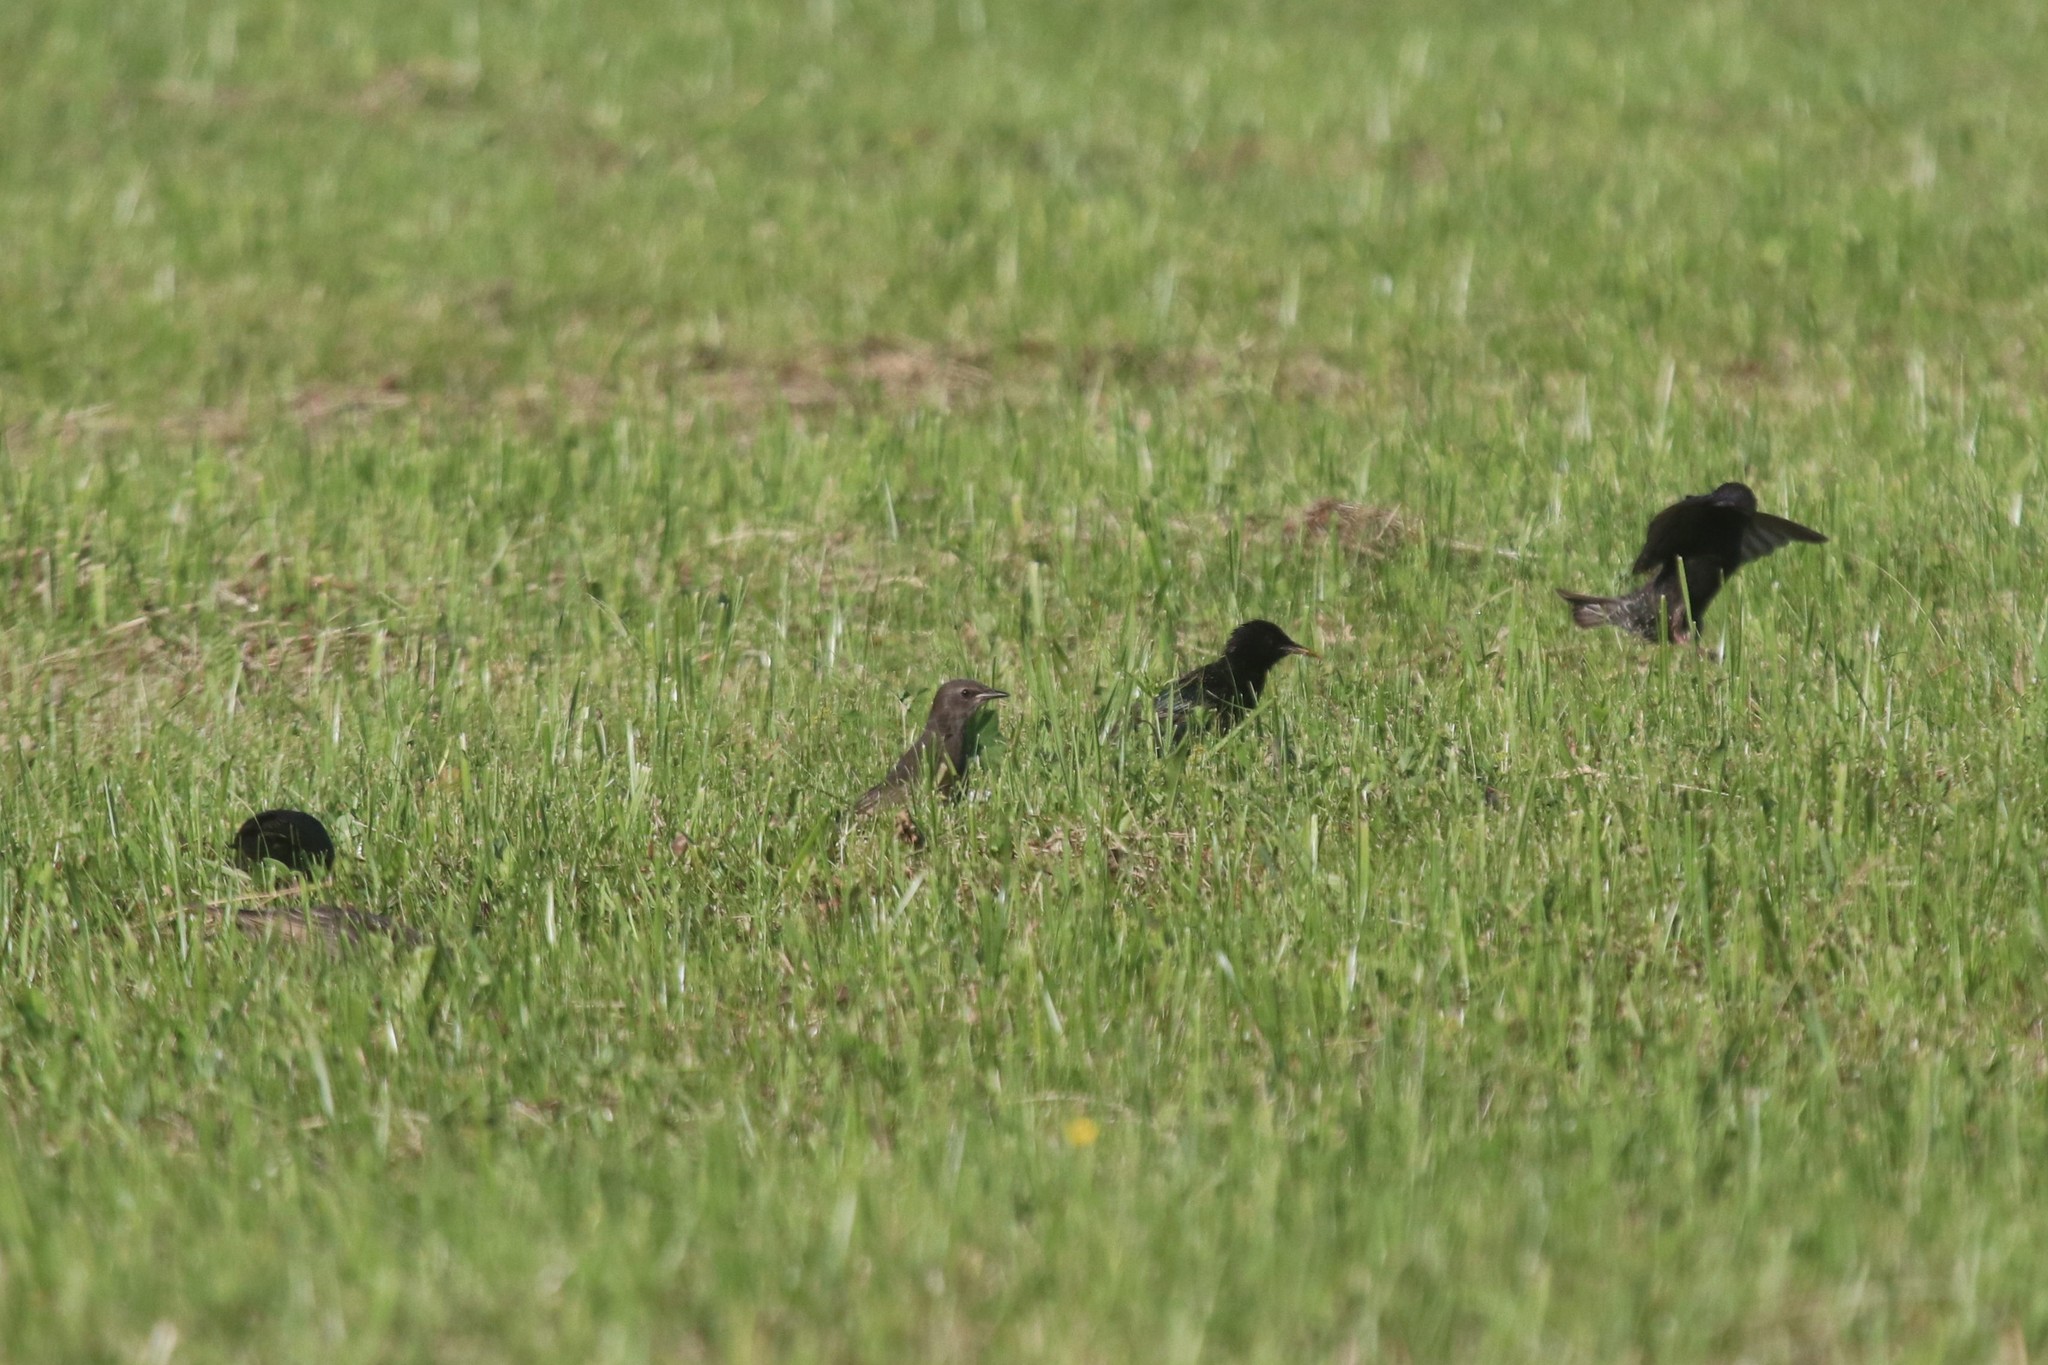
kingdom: Animalia
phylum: Chordata
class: Aves
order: Passeriformes
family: Sturnidae
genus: Sturnus
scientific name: Sturnus vulgaris
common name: Common starling
